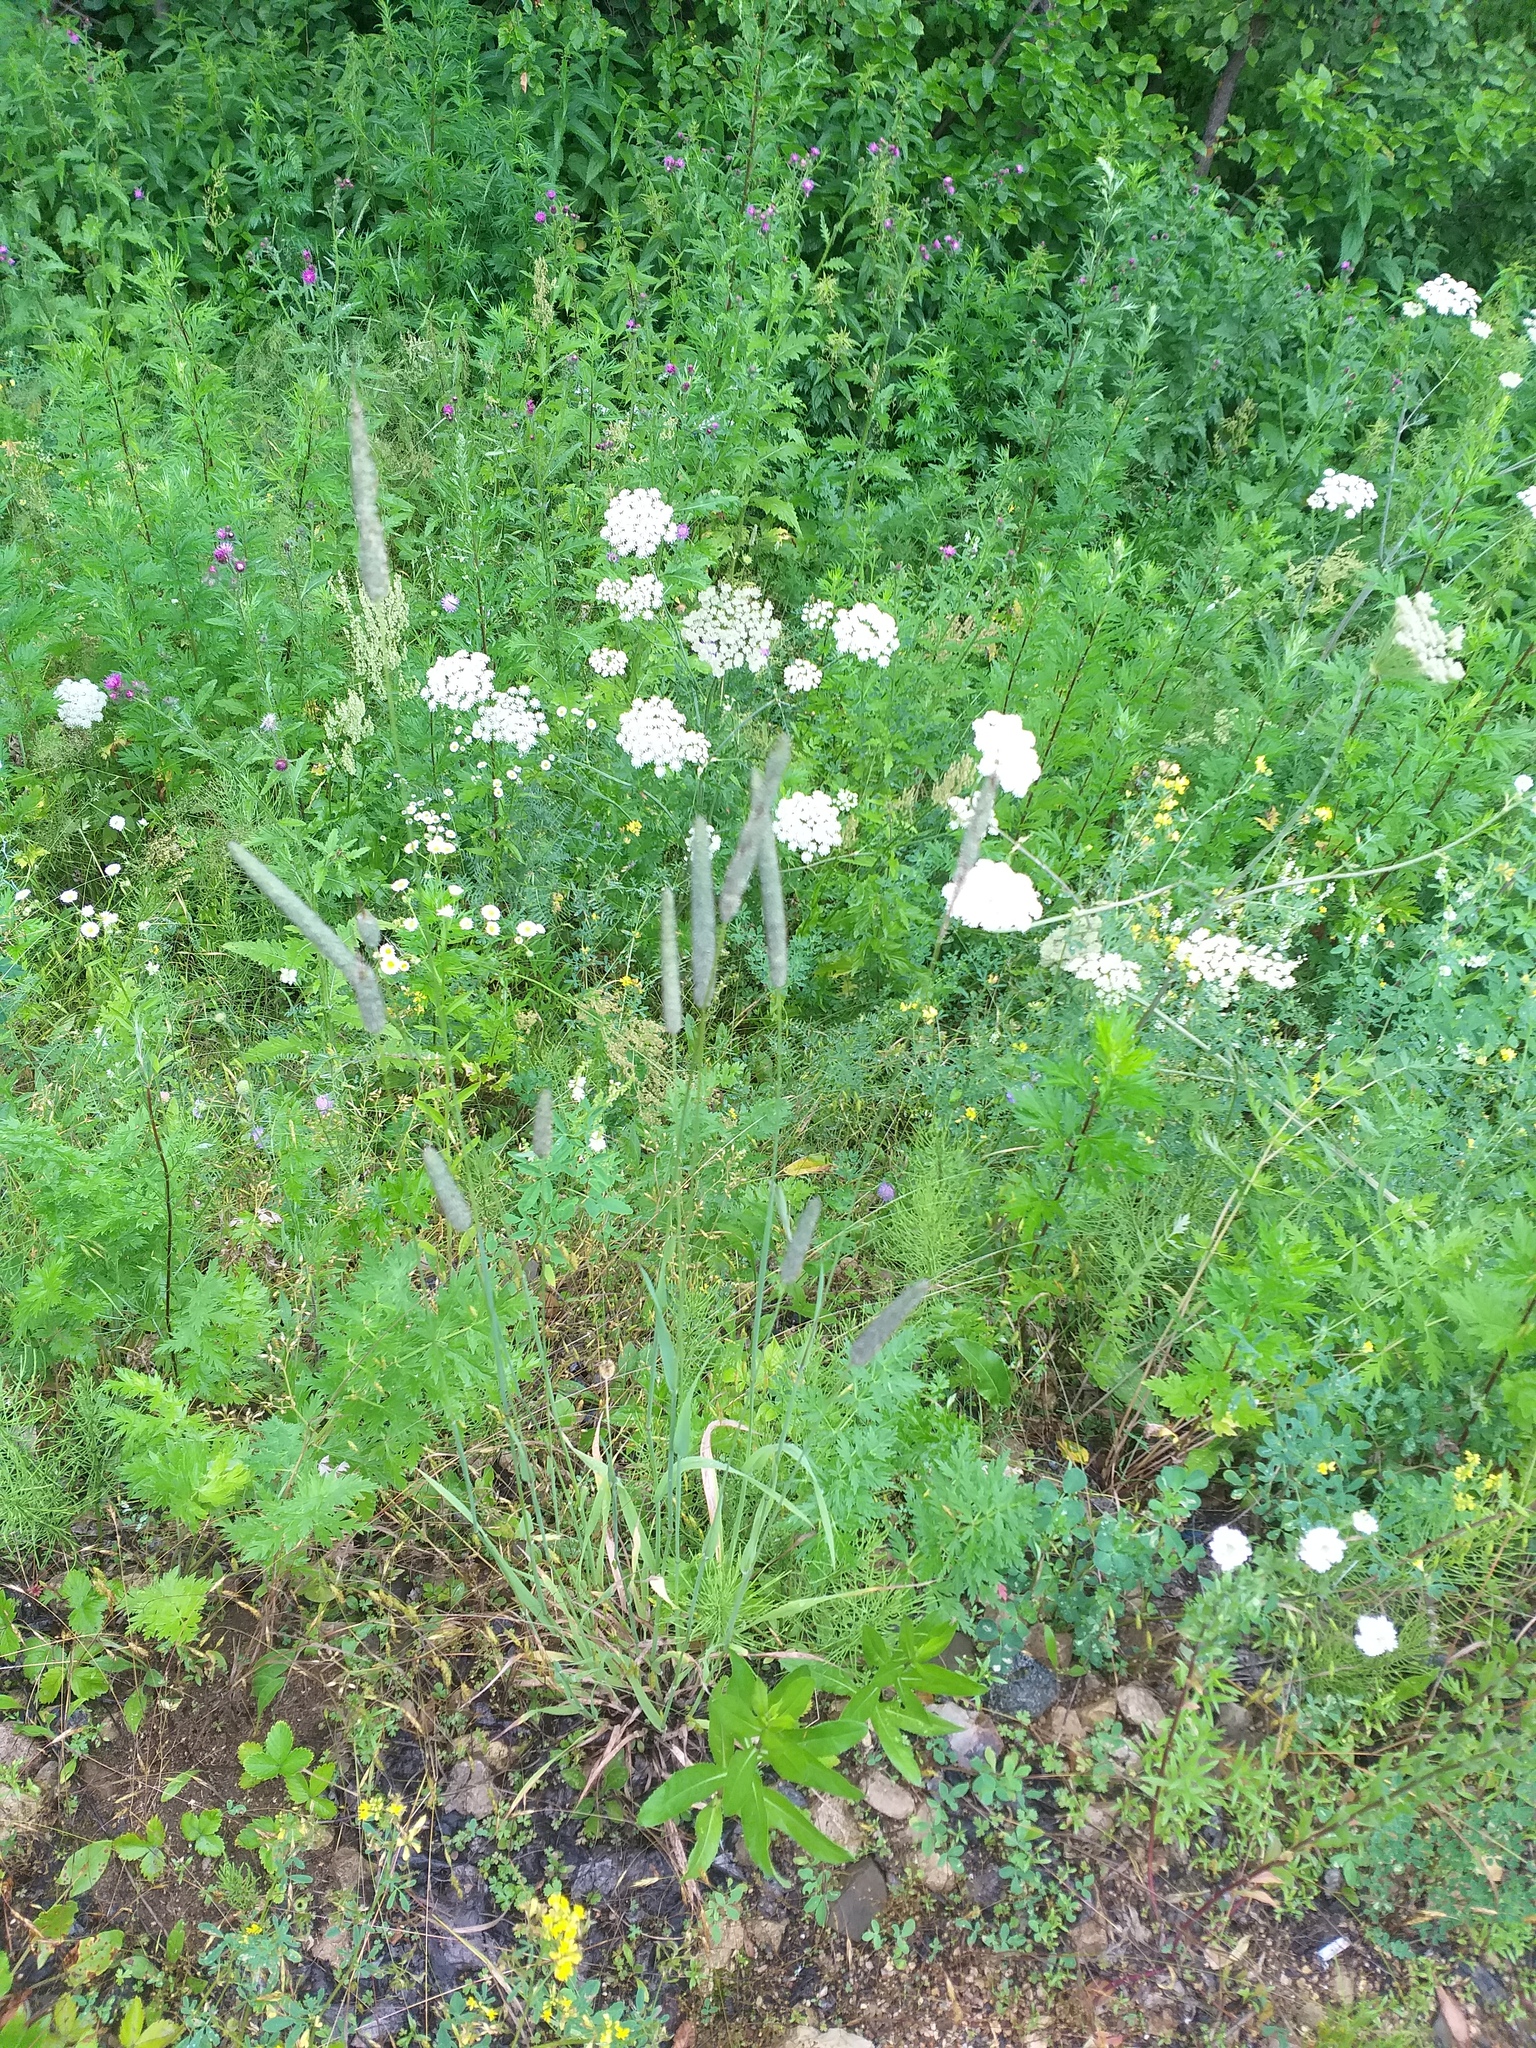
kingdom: Plantae
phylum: Tracheophyta
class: Liliopsida
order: Poales
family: Poaceae
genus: Phleum
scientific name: Phleum pratense
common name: Timothy grass
